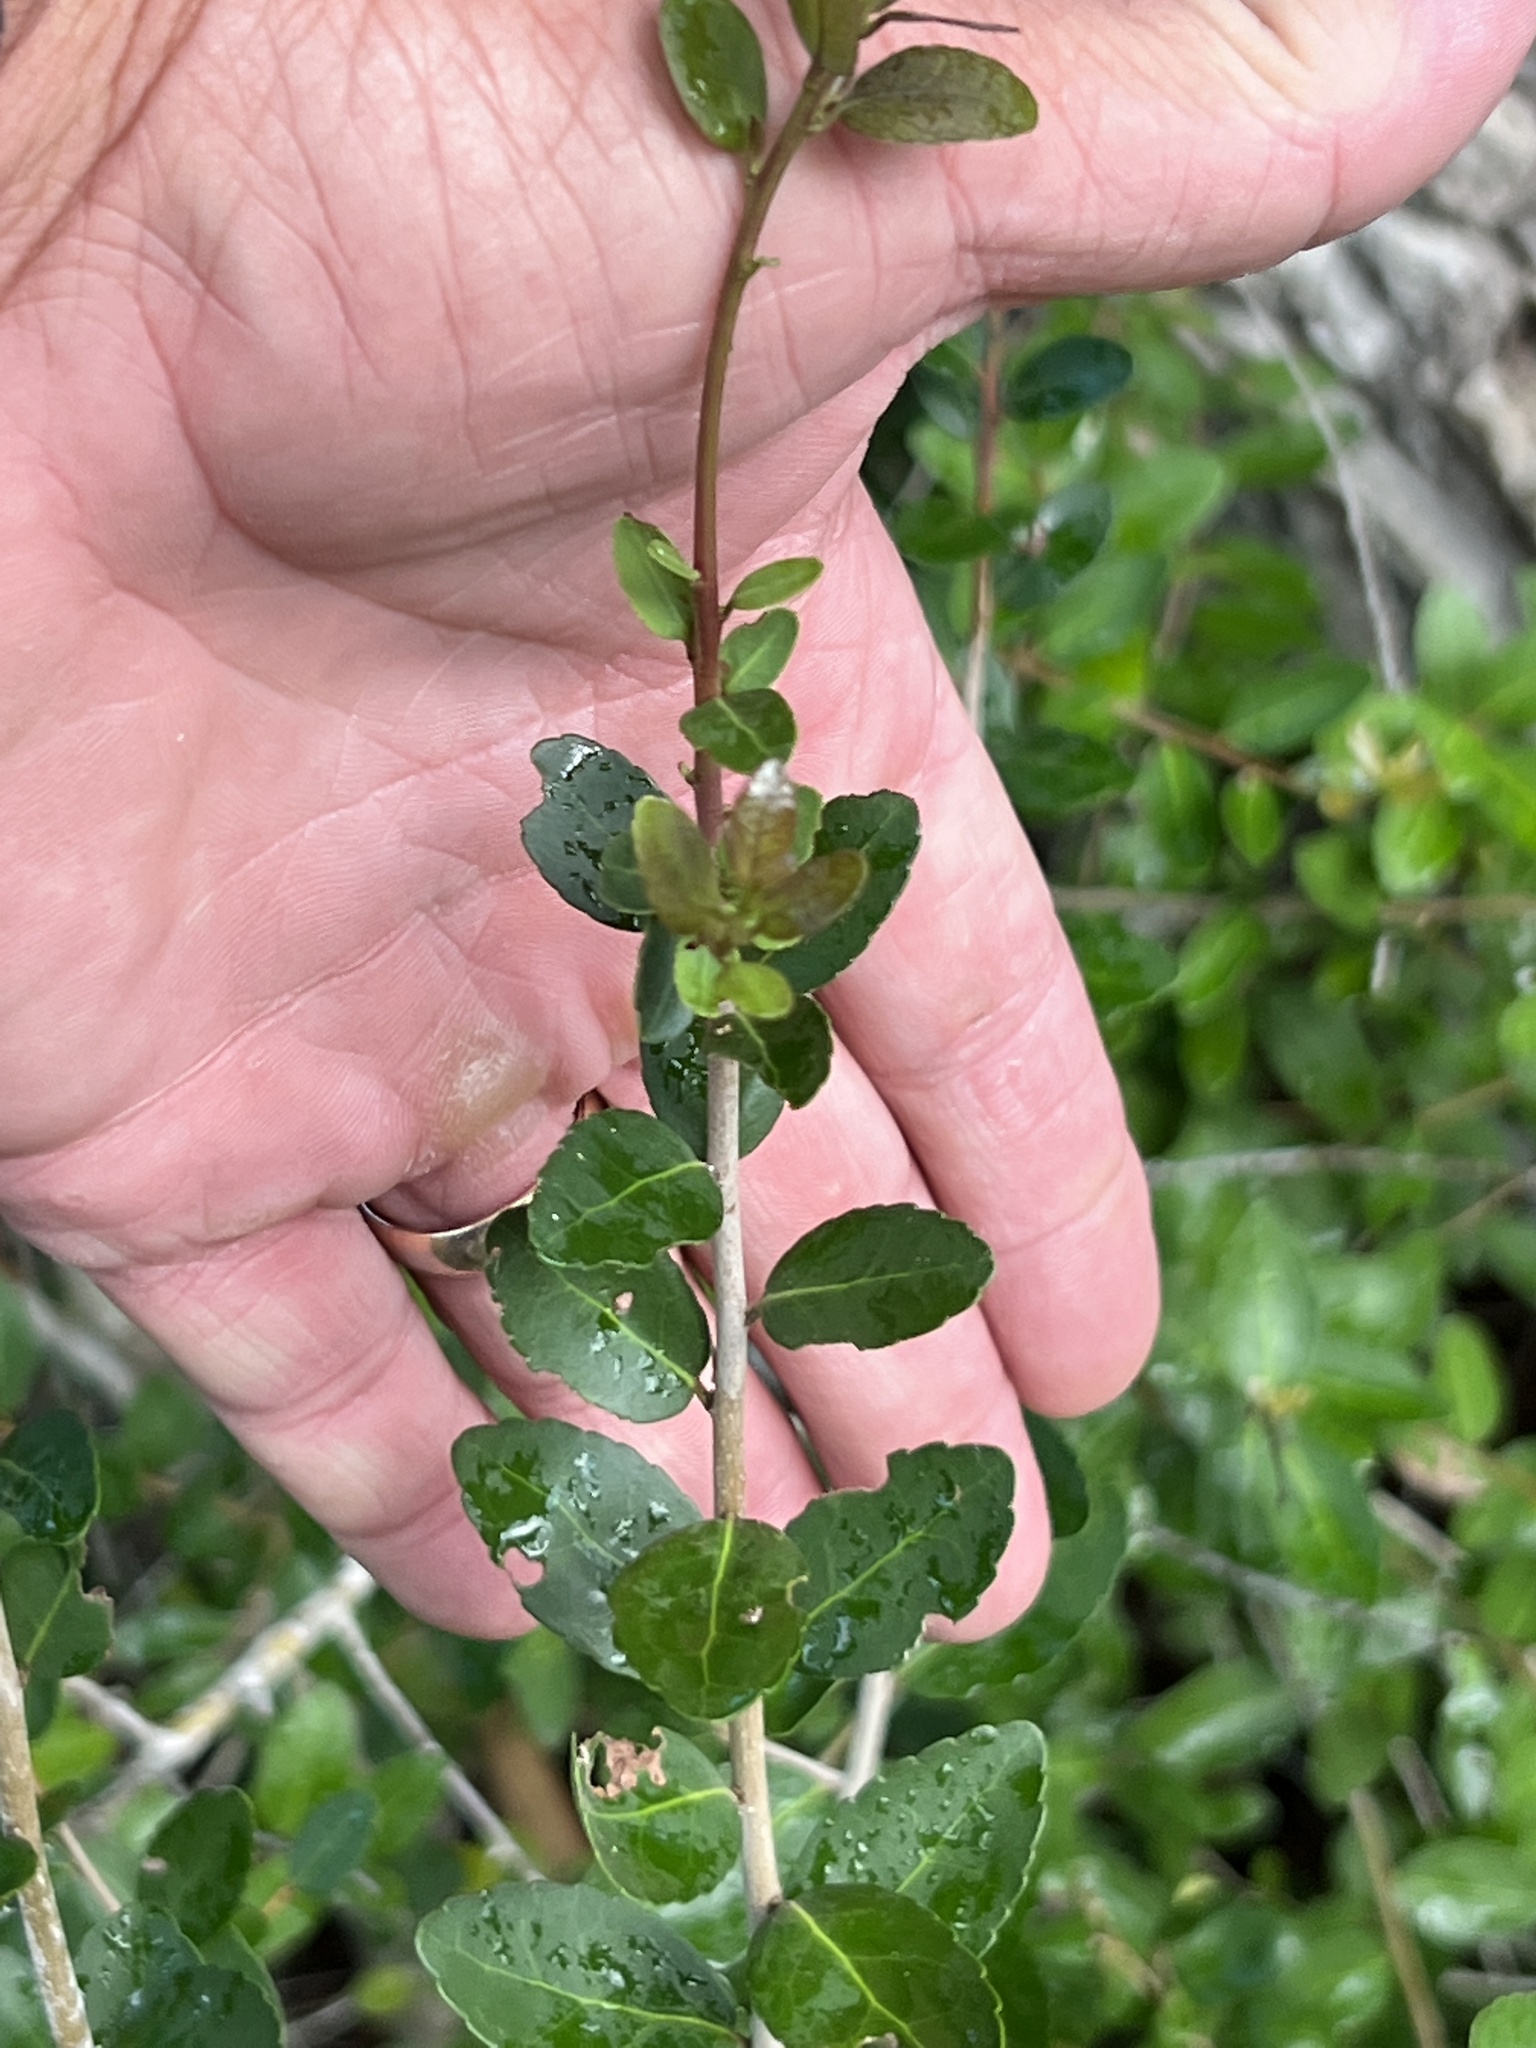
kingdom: Plantae
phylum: Tracheophyta
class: Magnoliopsida
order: Aquifoliales
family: Aquifoliaceae
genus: Ilex
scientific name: Ilex vomitoria
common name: Yaupon holly
